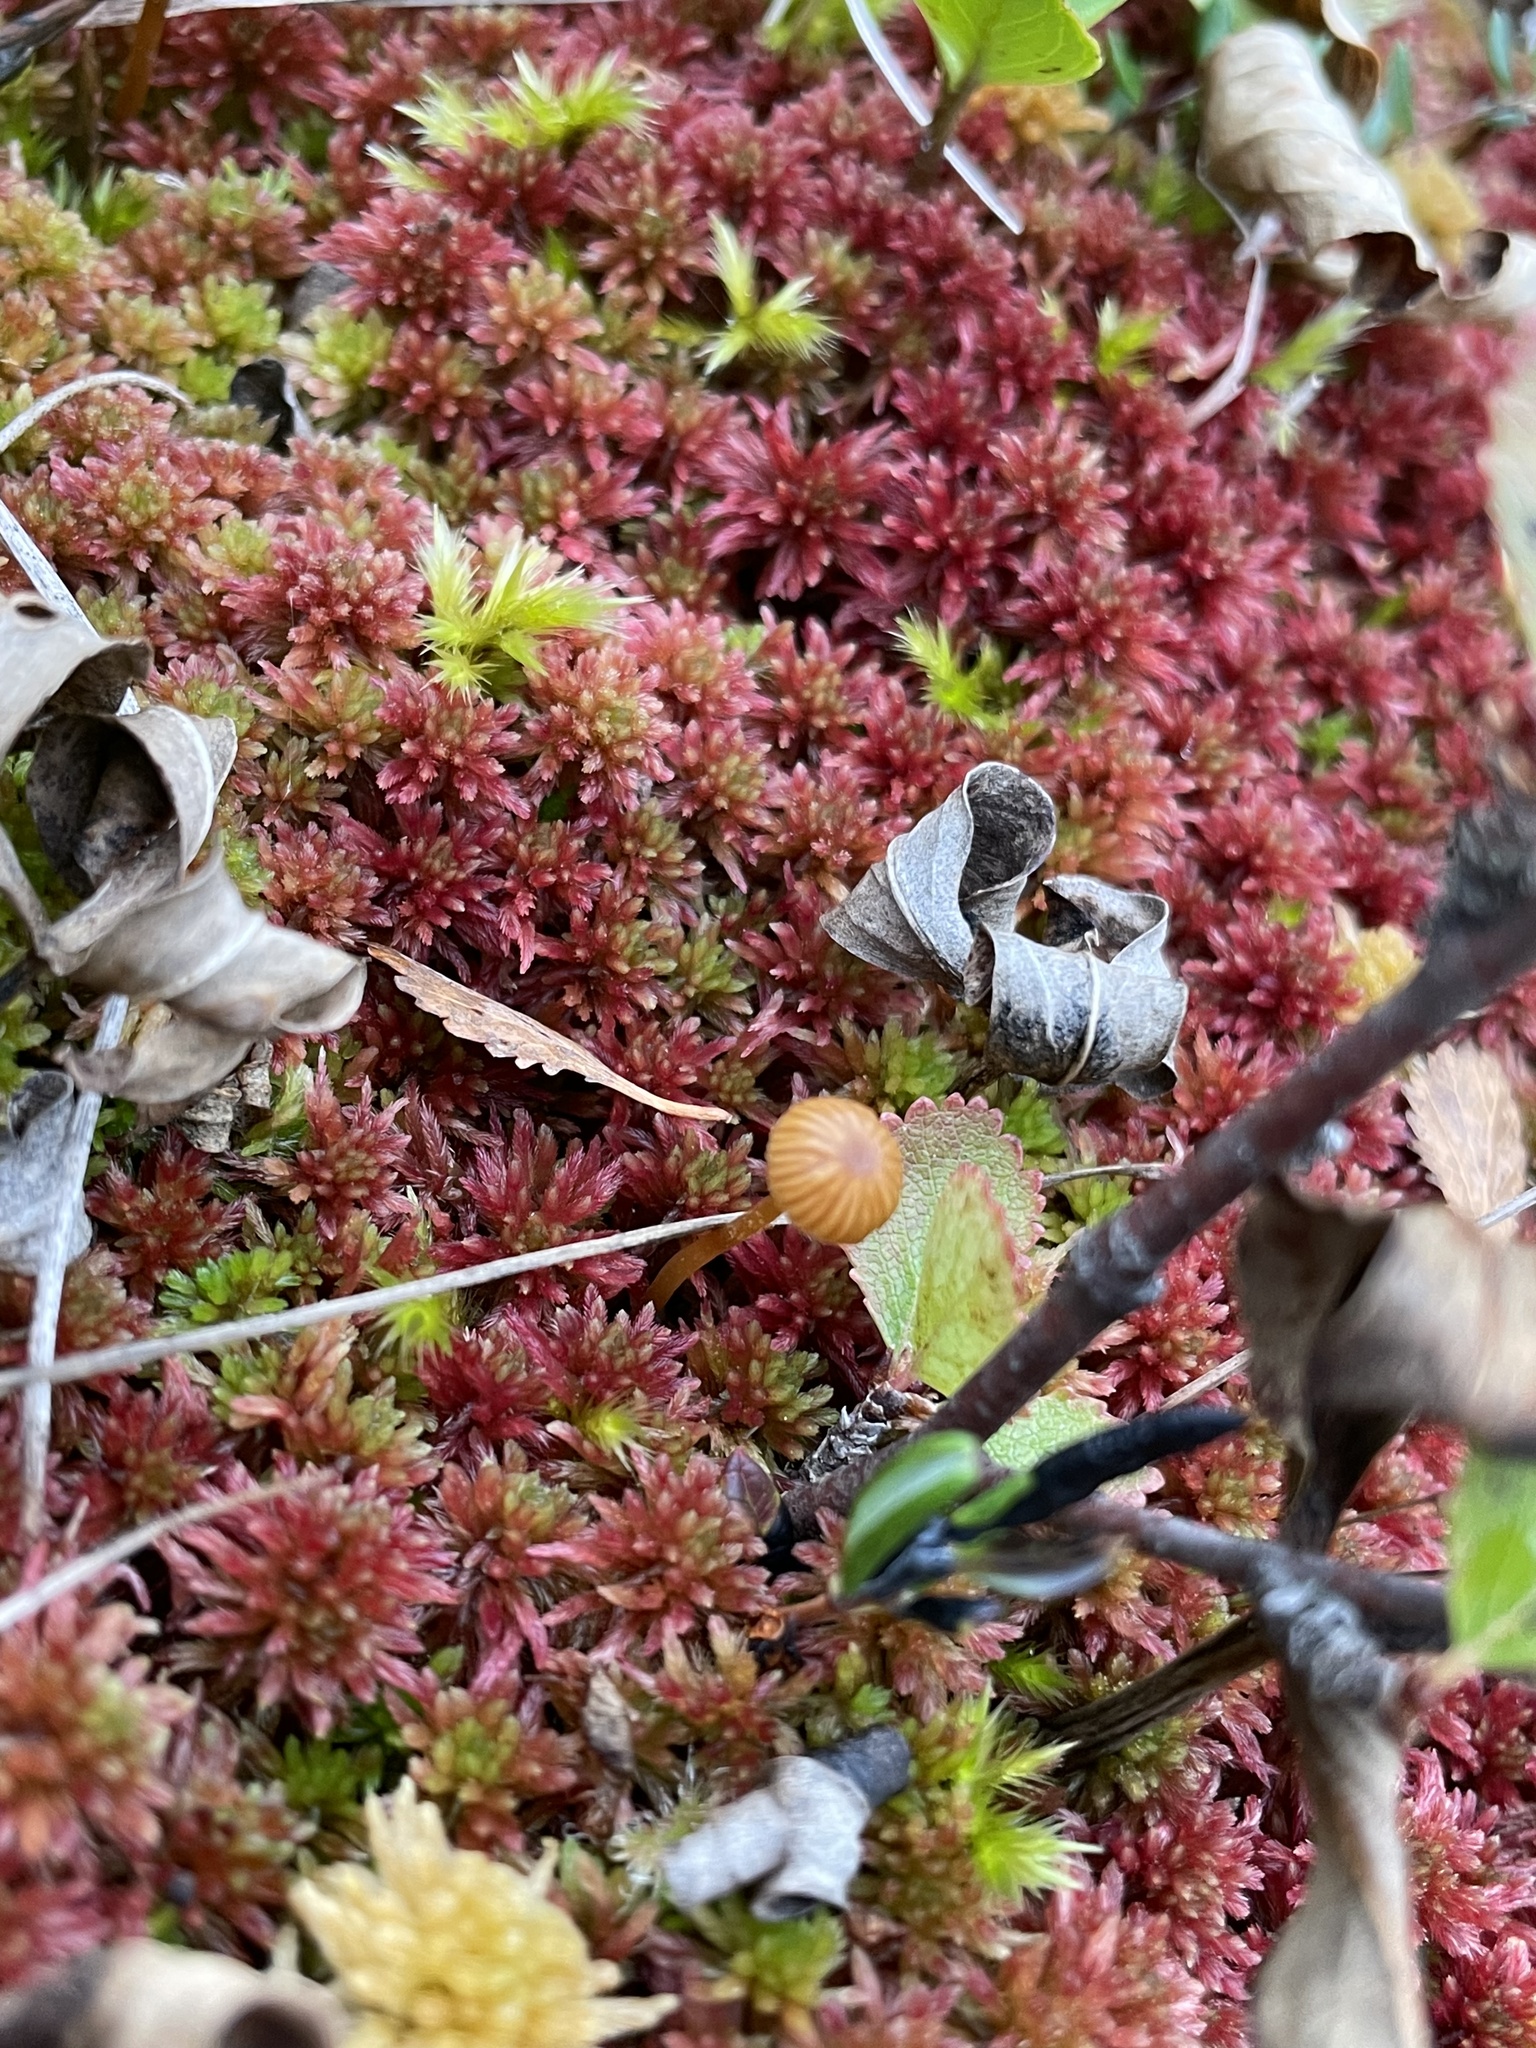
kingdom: Plantae
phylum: Bryophyta
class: Sphagnopsida
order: Sphagnales
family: Sphagnaceae
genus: Sphagnum
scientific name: Sphagnum warnstorfii
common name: Warnstorf's peat moss
